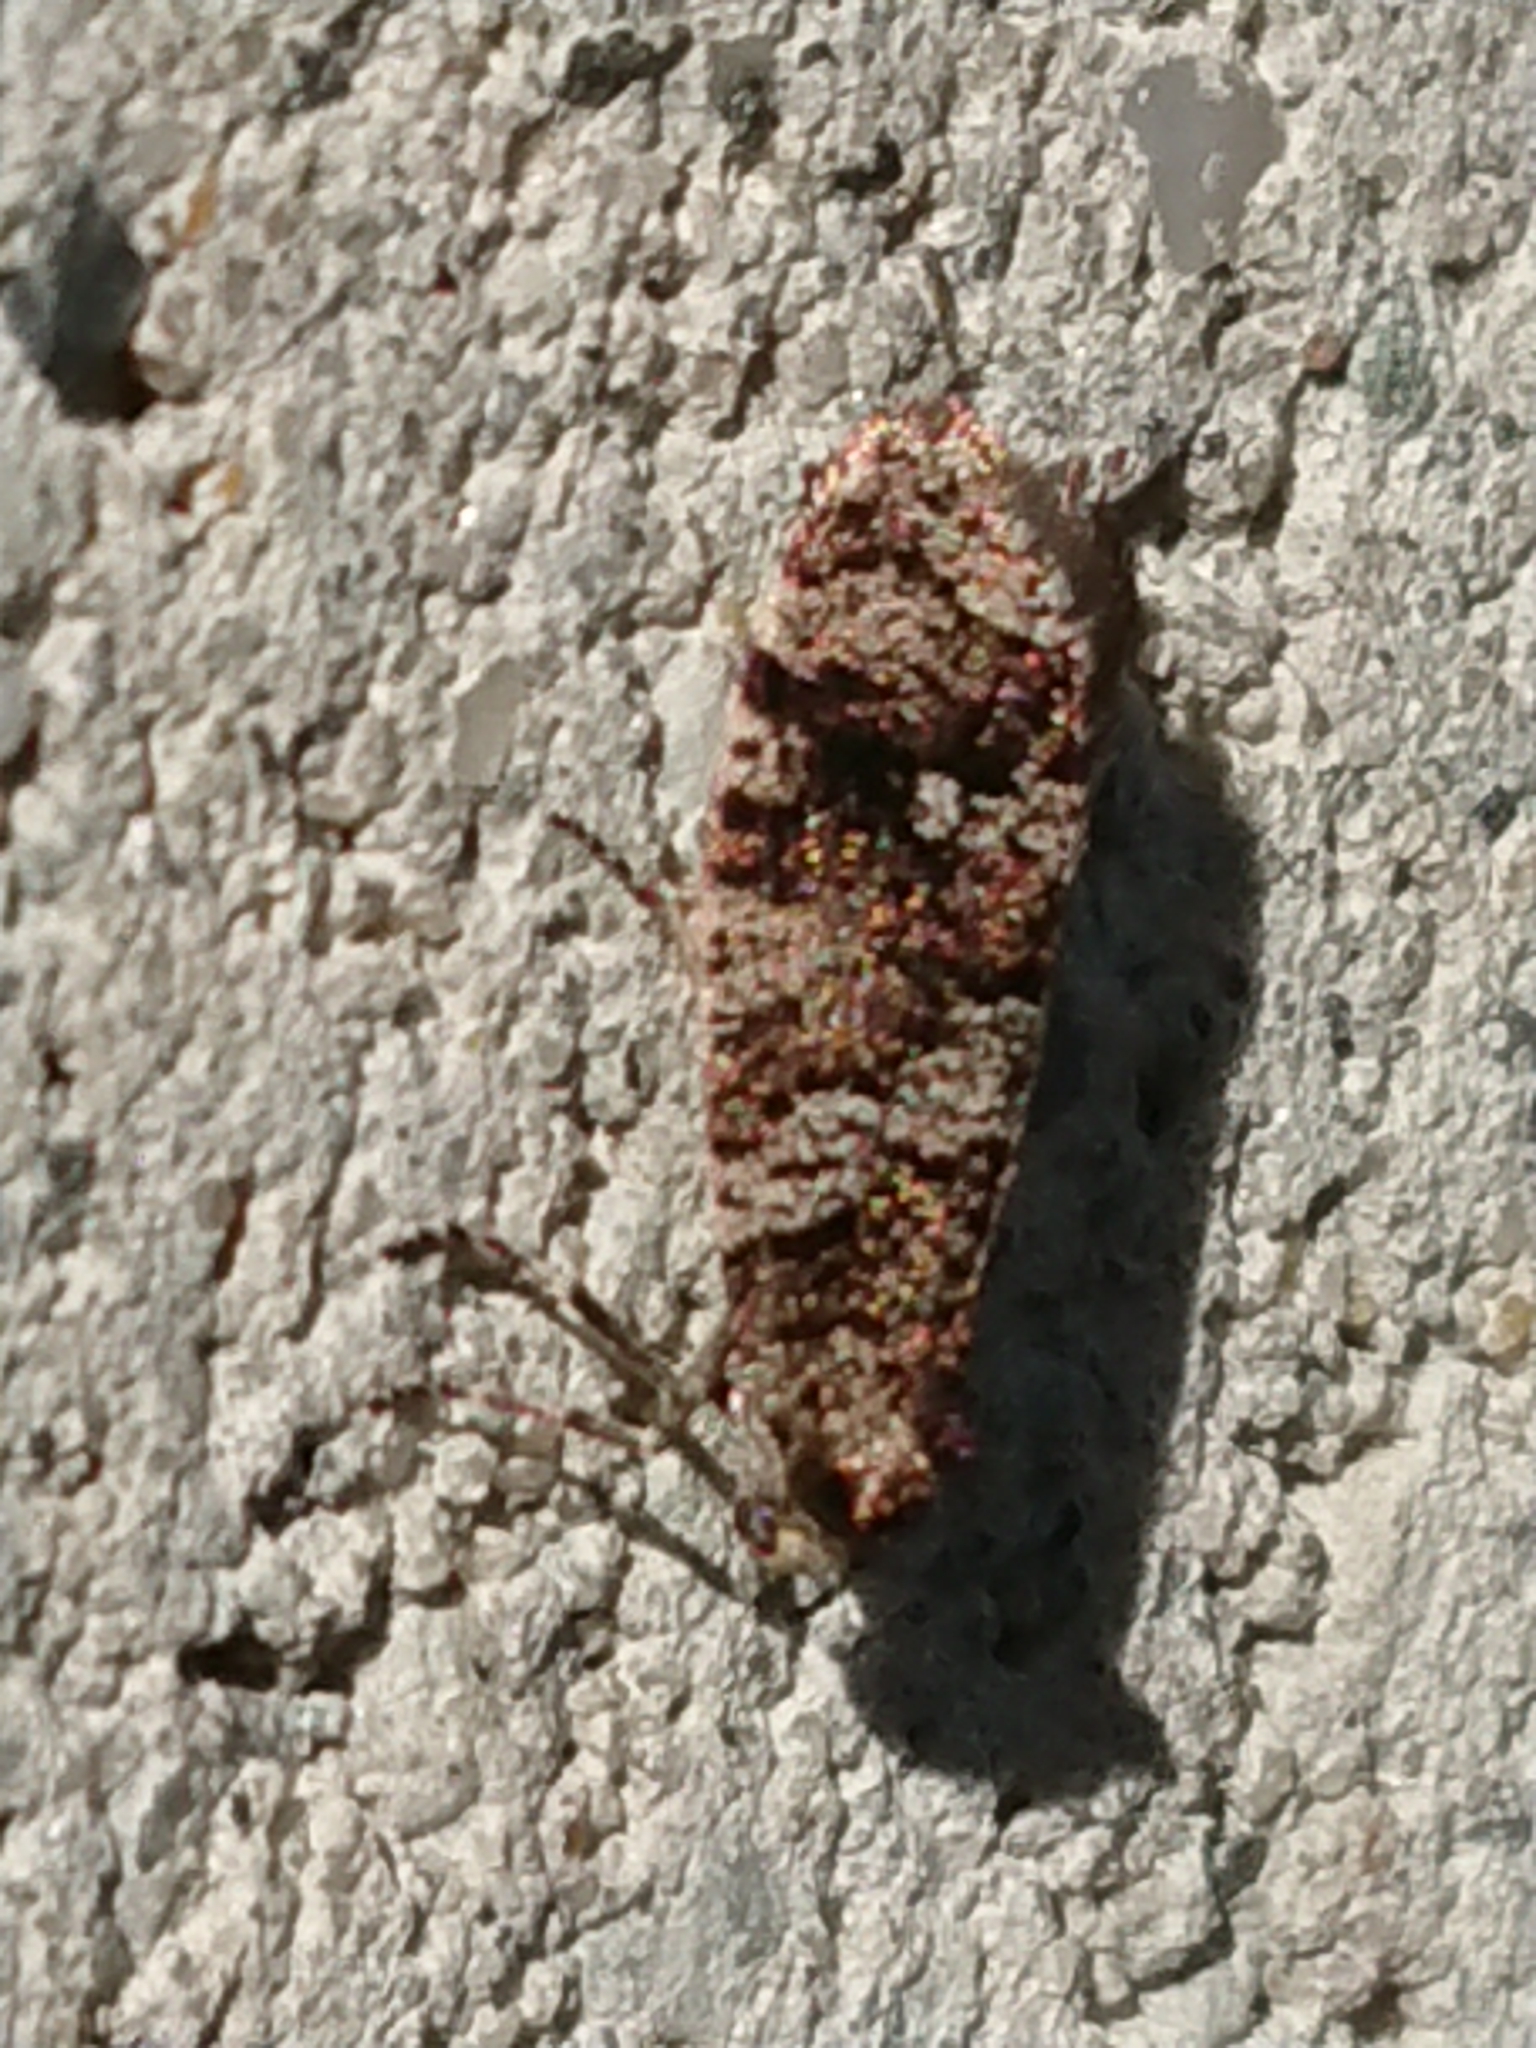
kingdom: Animalia
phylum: Arthropoda
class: Insecta
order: Lepidoptera
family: Psychidae
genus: Lepidoscia
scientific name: Lepidoscia heliochares
